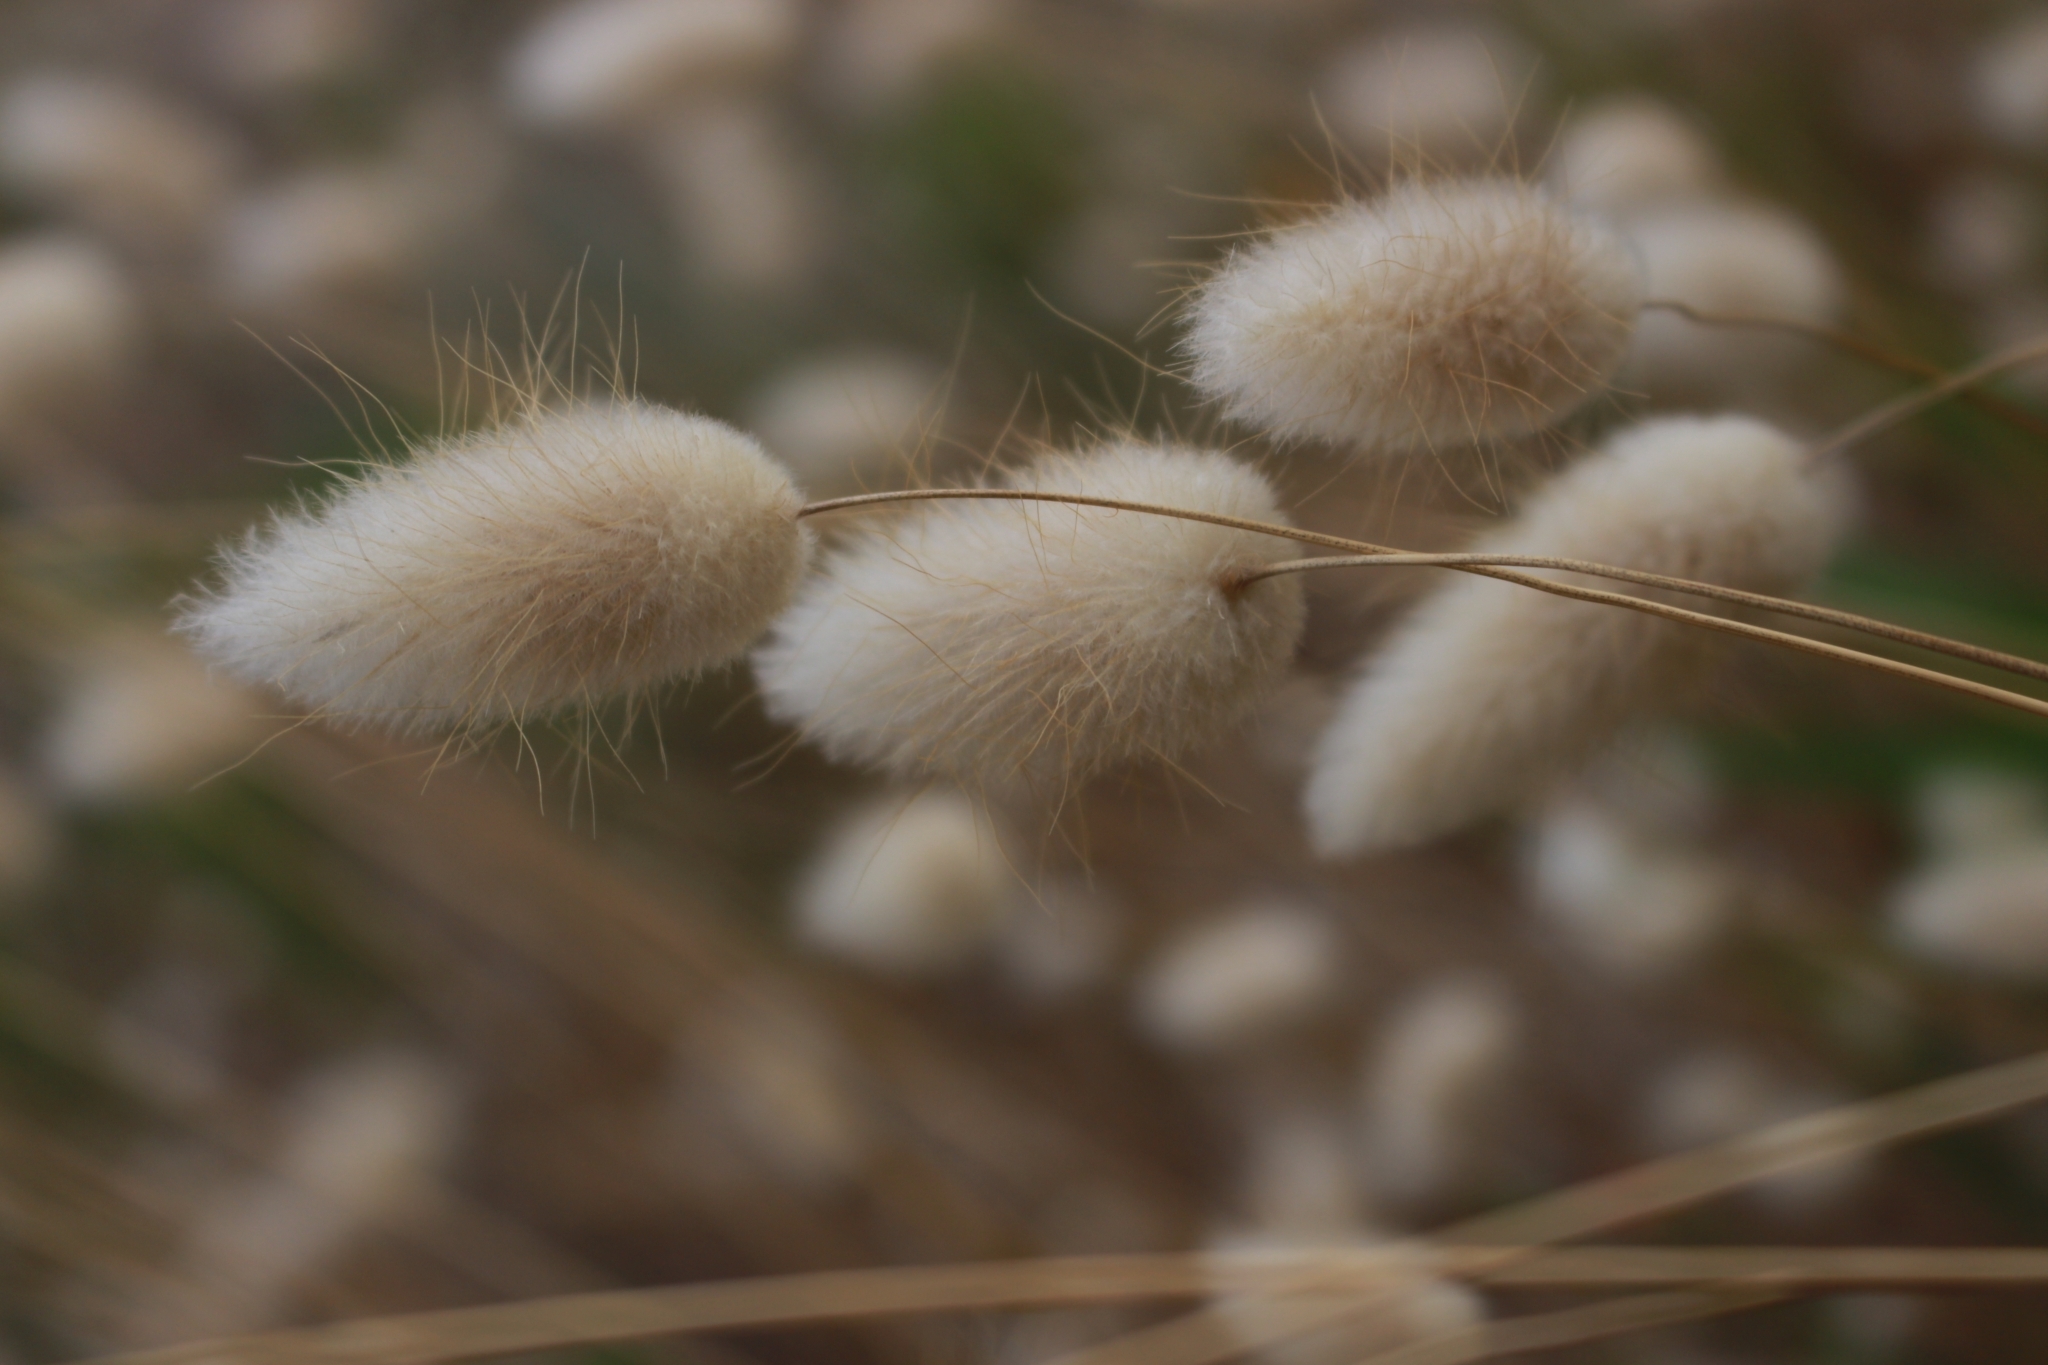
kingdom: Plantae
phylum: Tracheophyta
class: Liliopsida
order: Poales
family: Poaceae
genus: Lagurus
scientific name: Lagurus ovatus
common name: Hare's-tail
